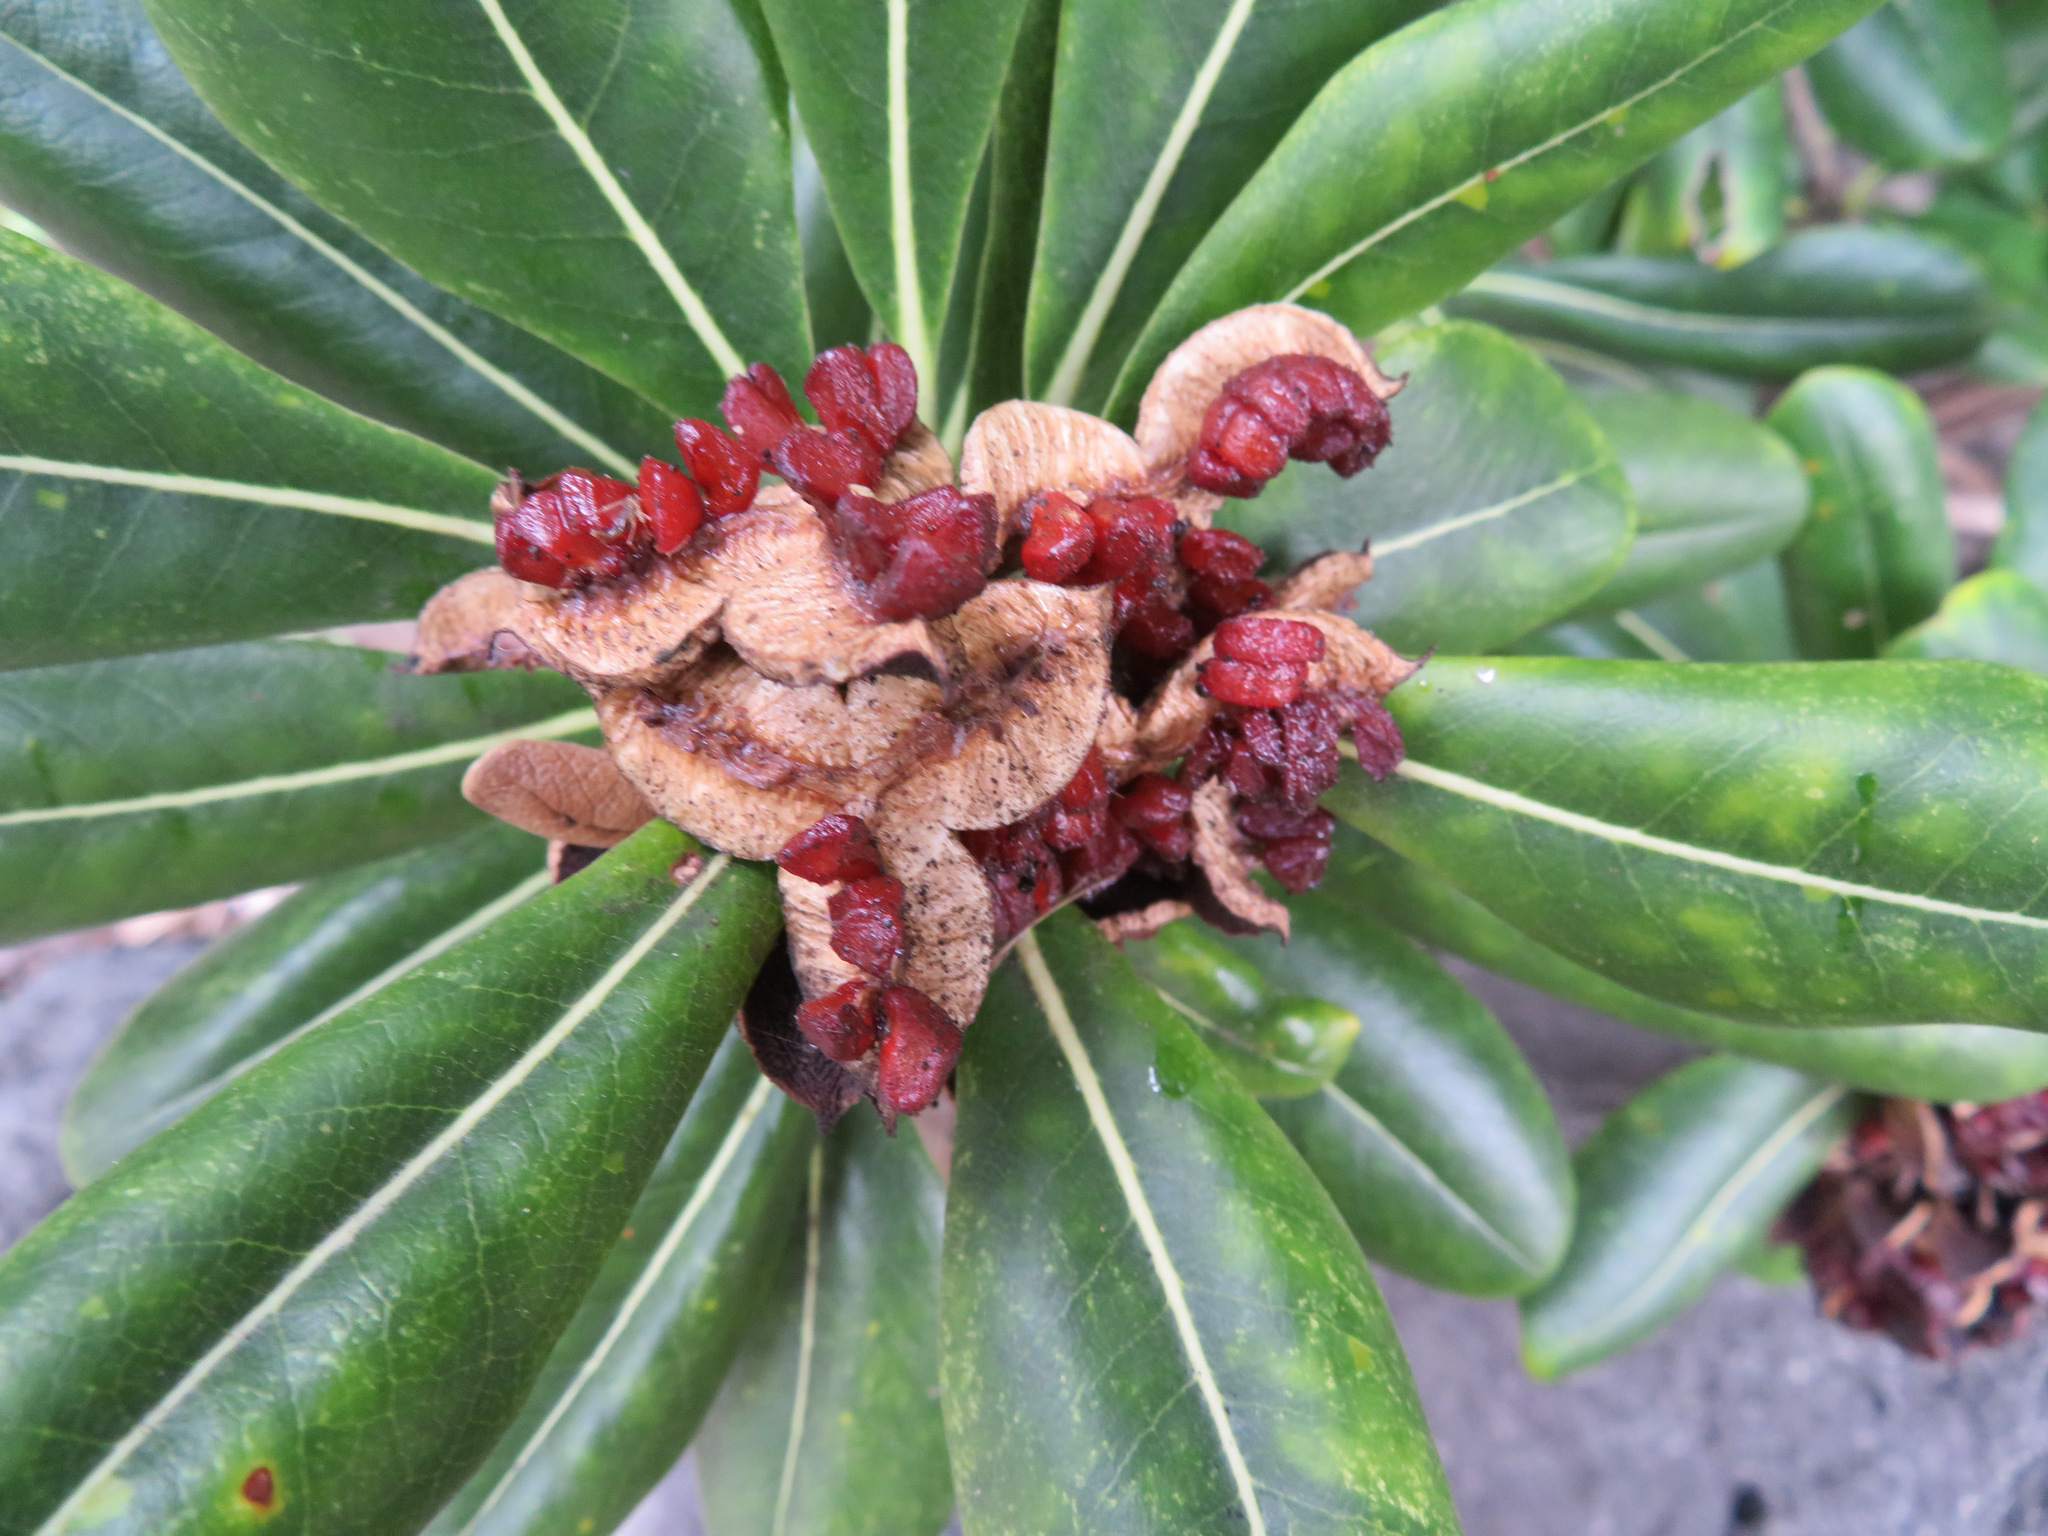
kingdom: Plantae
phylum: Tracheophyta
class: Magnoliopsida
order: Apiales
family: Pittosporaceae
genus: Pittosporum
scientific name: Pittosporum tobira
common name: Japanese cheesewood
